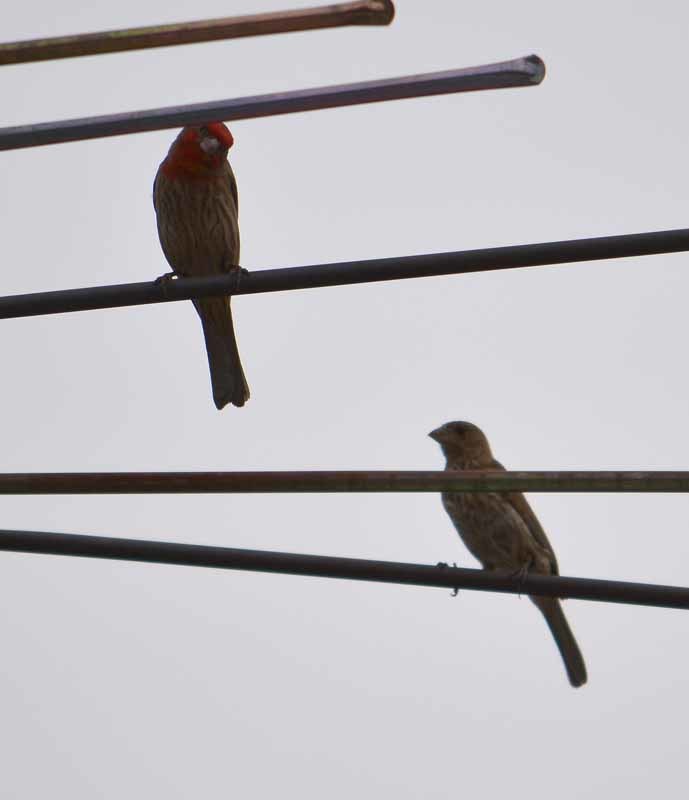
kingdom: Animalia
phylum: Chordata
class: Aves
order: Passeriformes
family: Fringillidae
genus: Haemorhous
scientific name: Haemorhous mexicanus
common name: House finch
